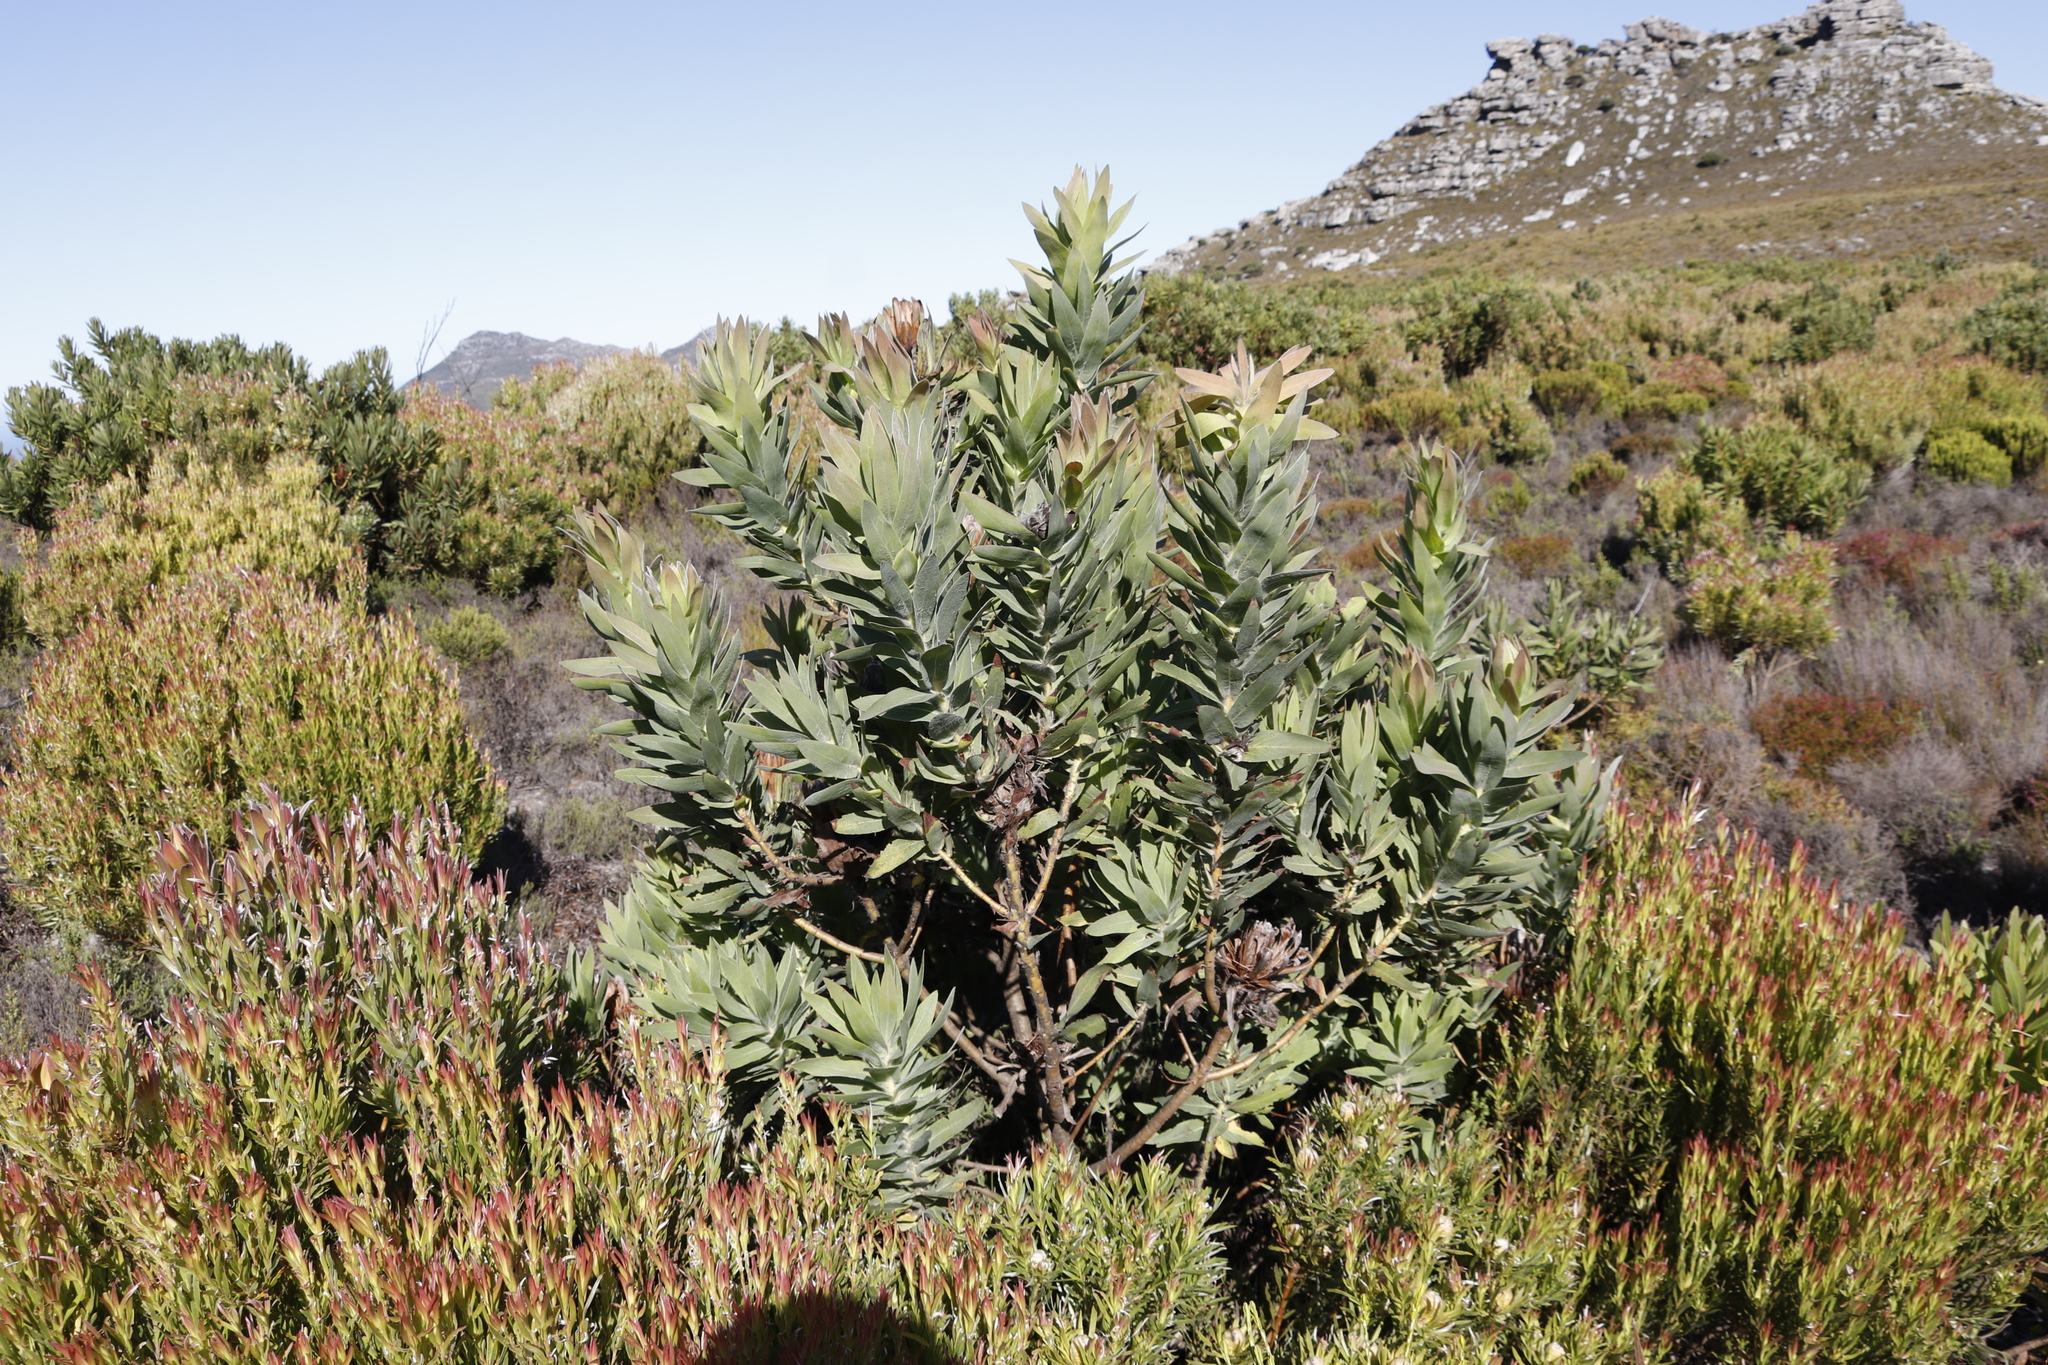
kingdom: Plantae
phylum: Tracheophyta
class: Magnoliopsida
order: Proteales
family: Proteaceae
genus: Protea
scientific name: Protea coronata
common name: Green sugarbush
